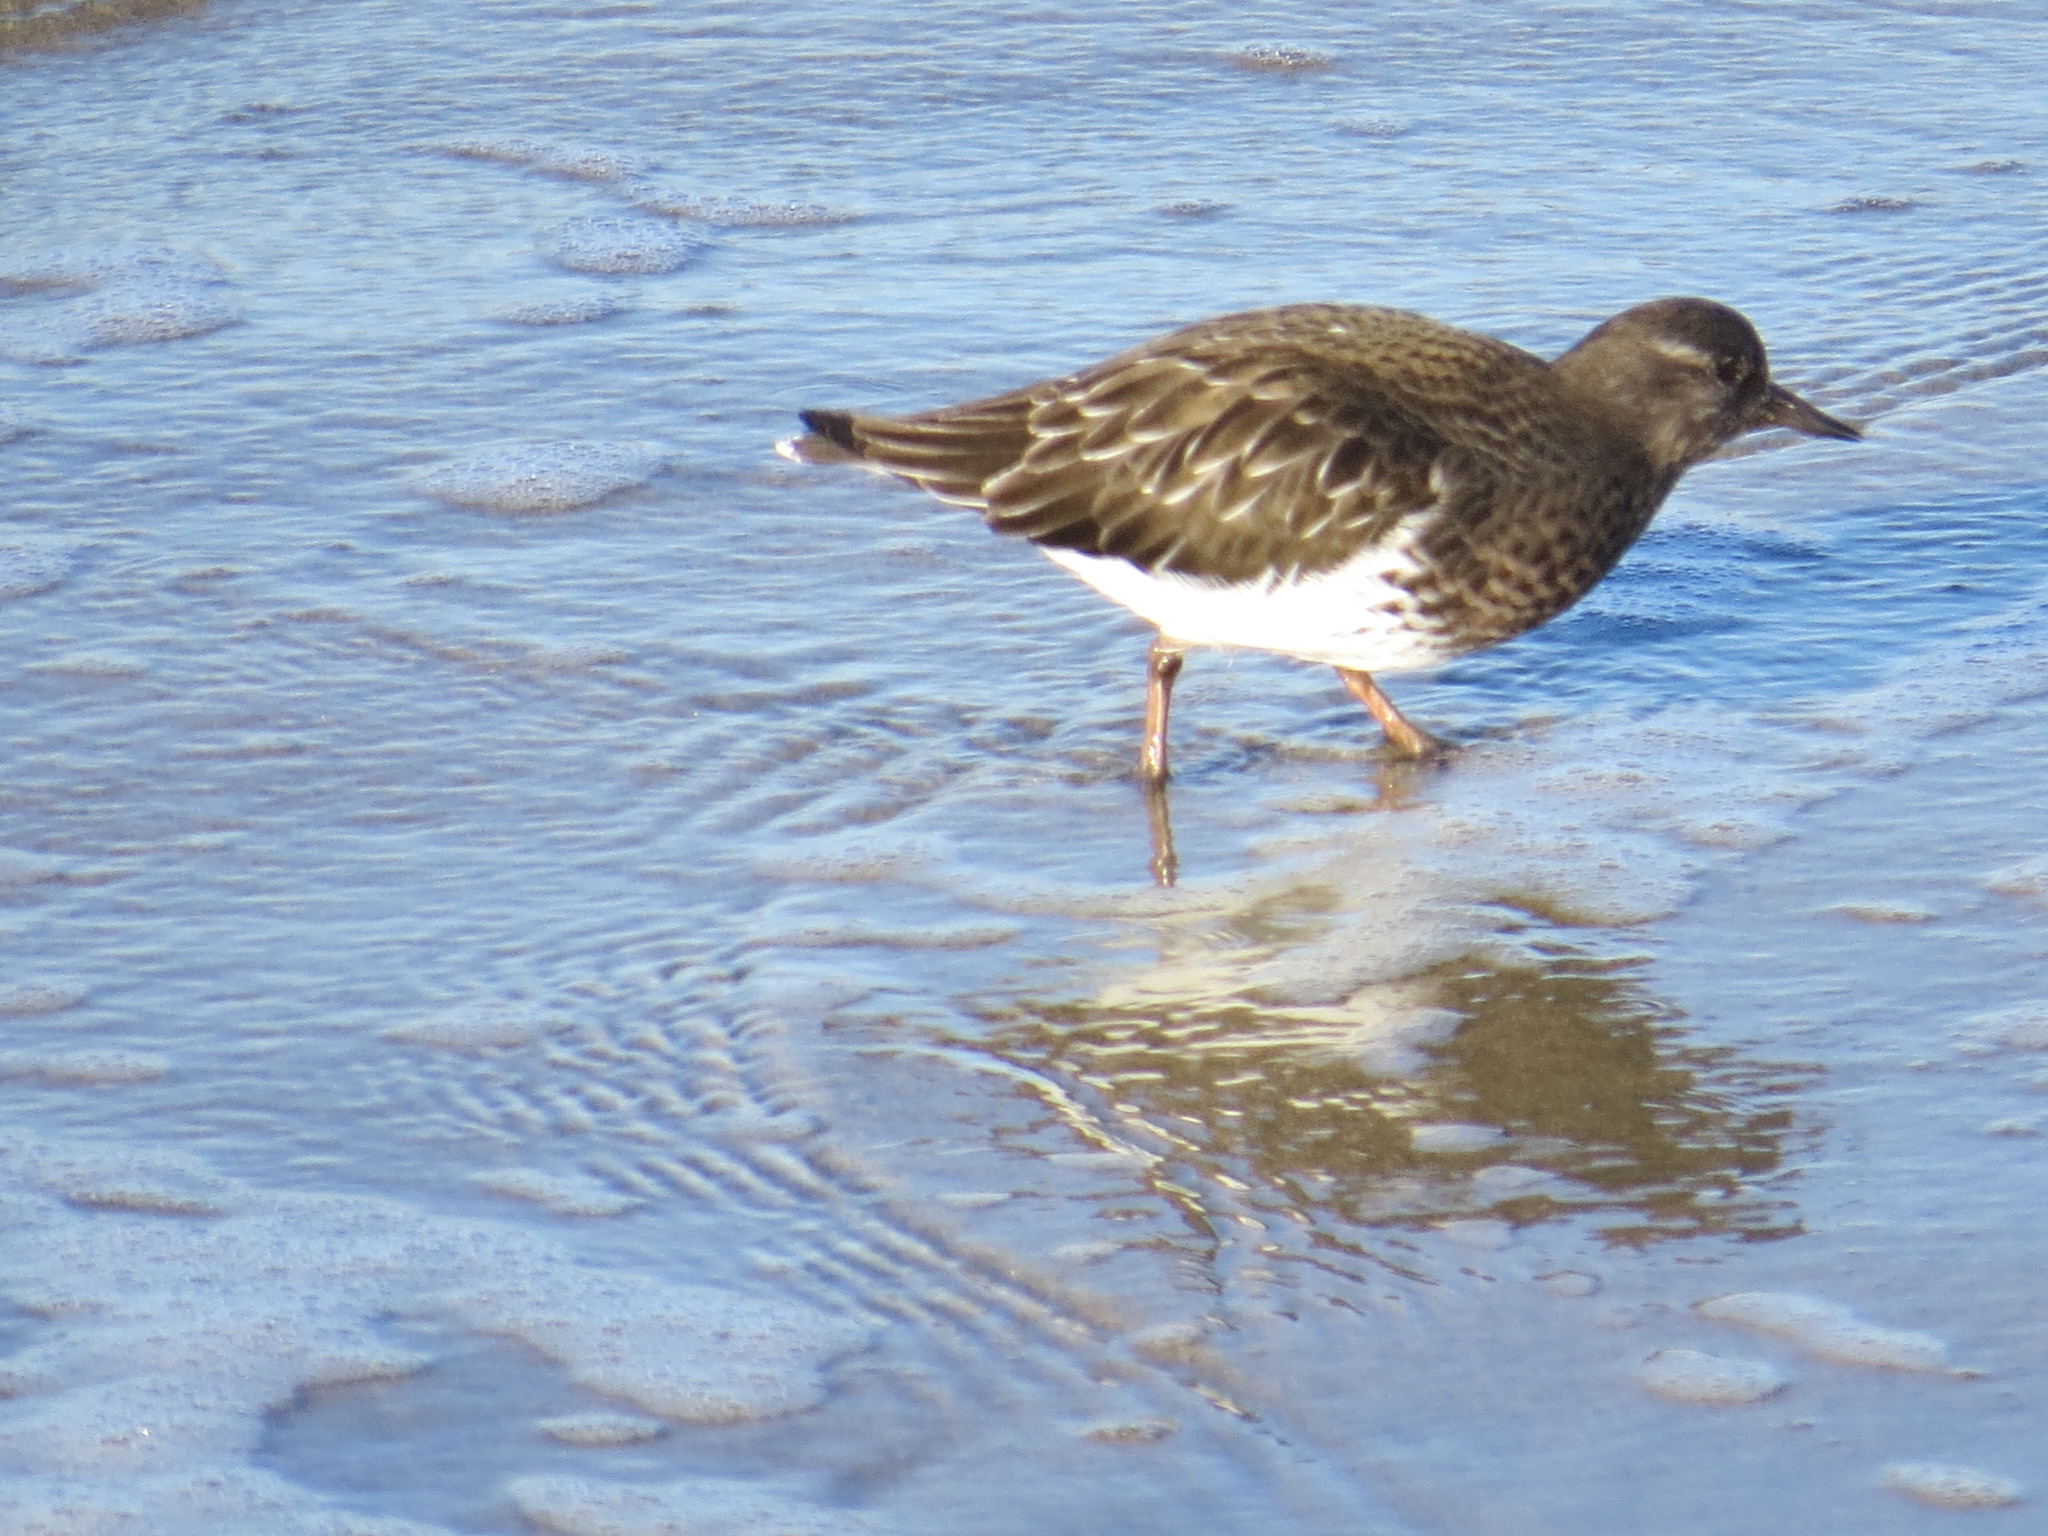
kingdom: Animalia
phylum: Chordata
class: Aves
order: Charadriiformes
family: Scolopacidae
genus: Arenaria
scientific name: Arenaria melanocephala
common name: Black turnstone
